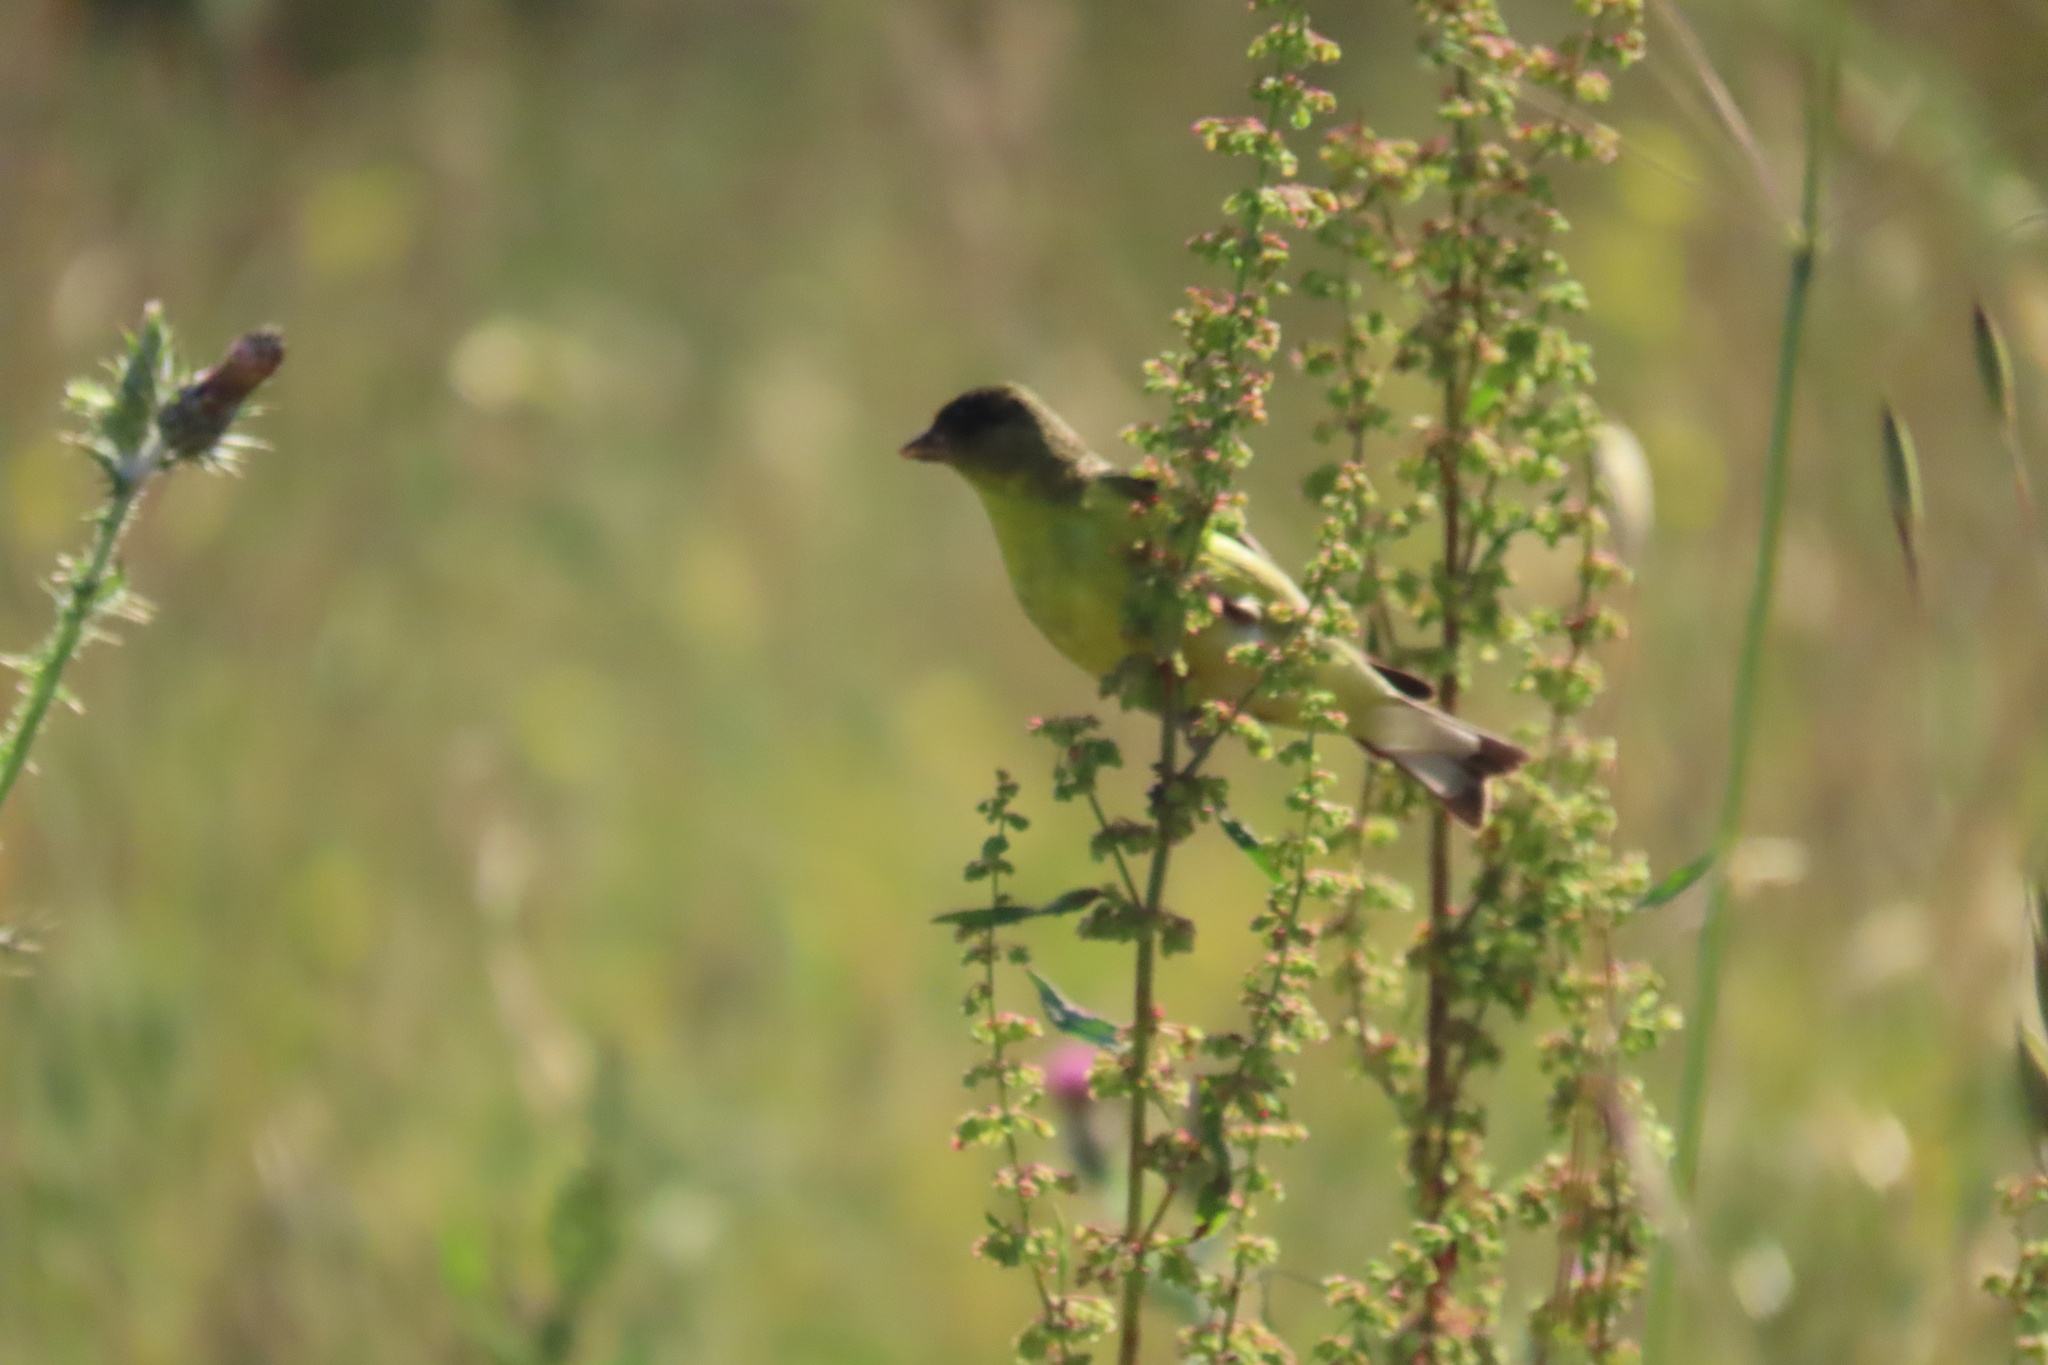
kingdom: Animalia
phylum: Chordata
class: Aves
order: Passeriformes
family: Fringillidae
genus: Spinus
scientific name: Spinus psaltria
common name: Lesser goldfinch
